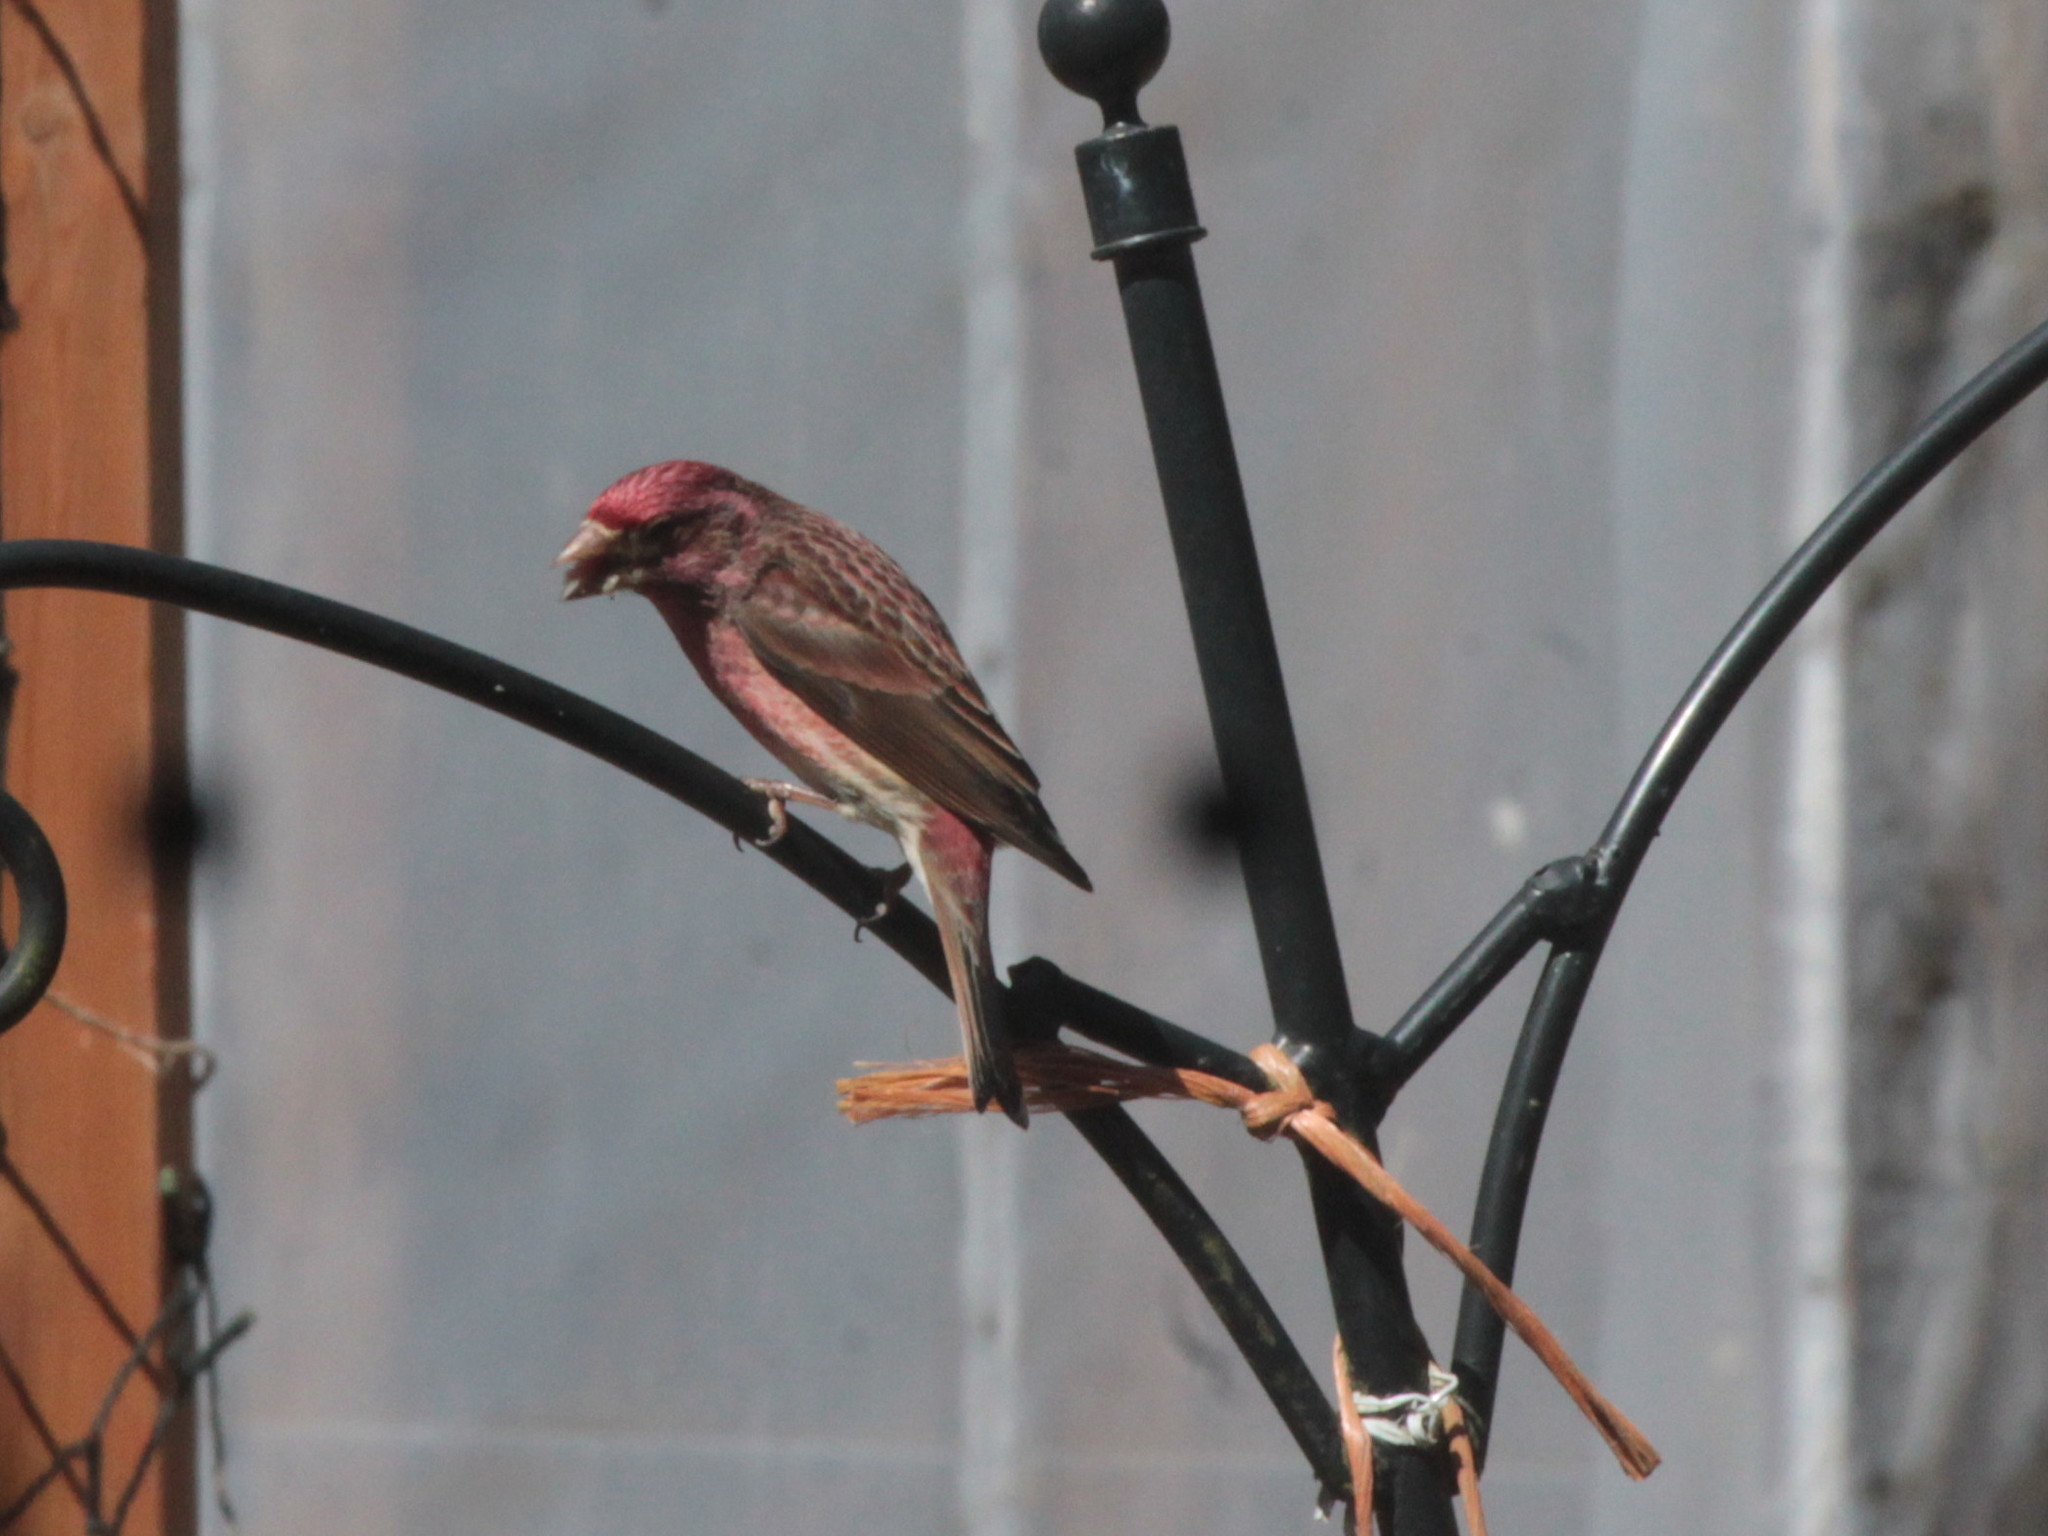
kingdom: Animalia
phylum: Chordata
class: Aves
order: Passeriformes
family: Fringillidae
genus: Haemorhous
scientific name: Haemorhous purpureus
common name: Purple finch
